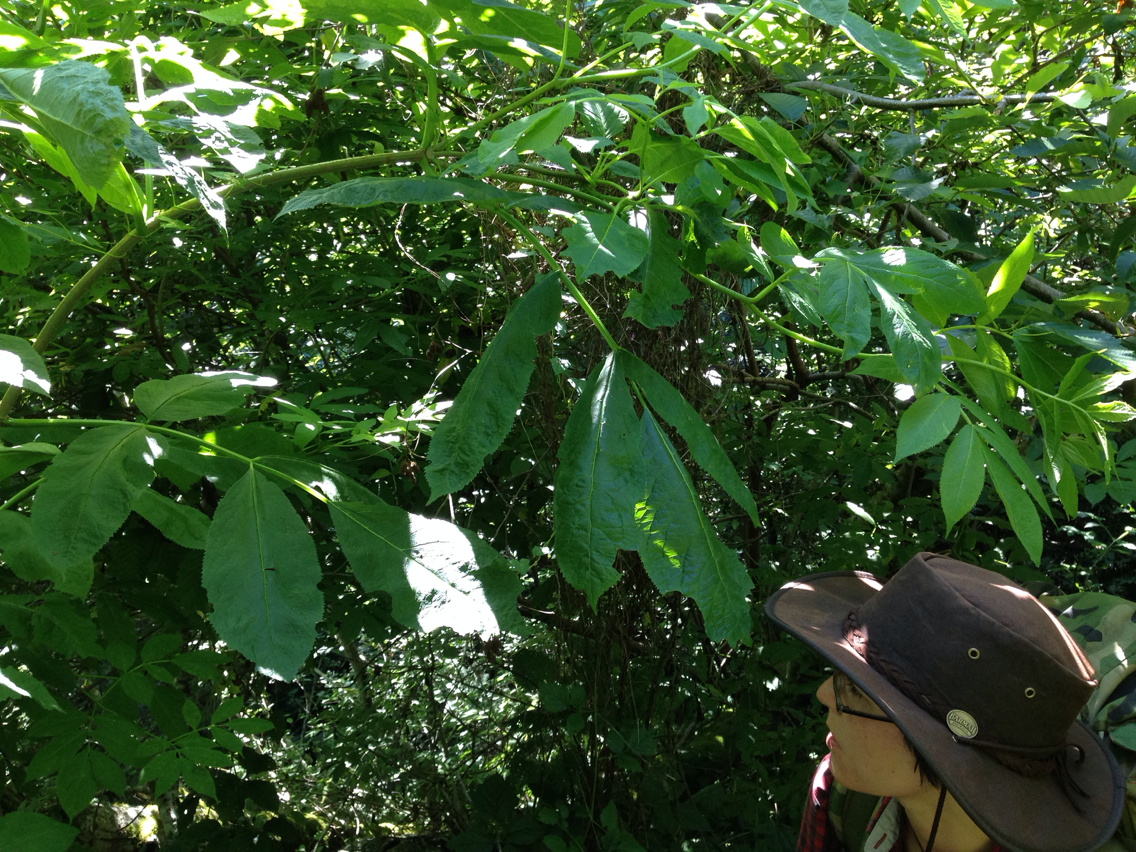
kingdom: Plantae
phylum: Tracheophyta
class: Magnoliopsida
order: Dipsacales
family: Viburnaceae
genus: Sambucus
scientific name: Sambucus racemosa
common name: Red-berried elder
